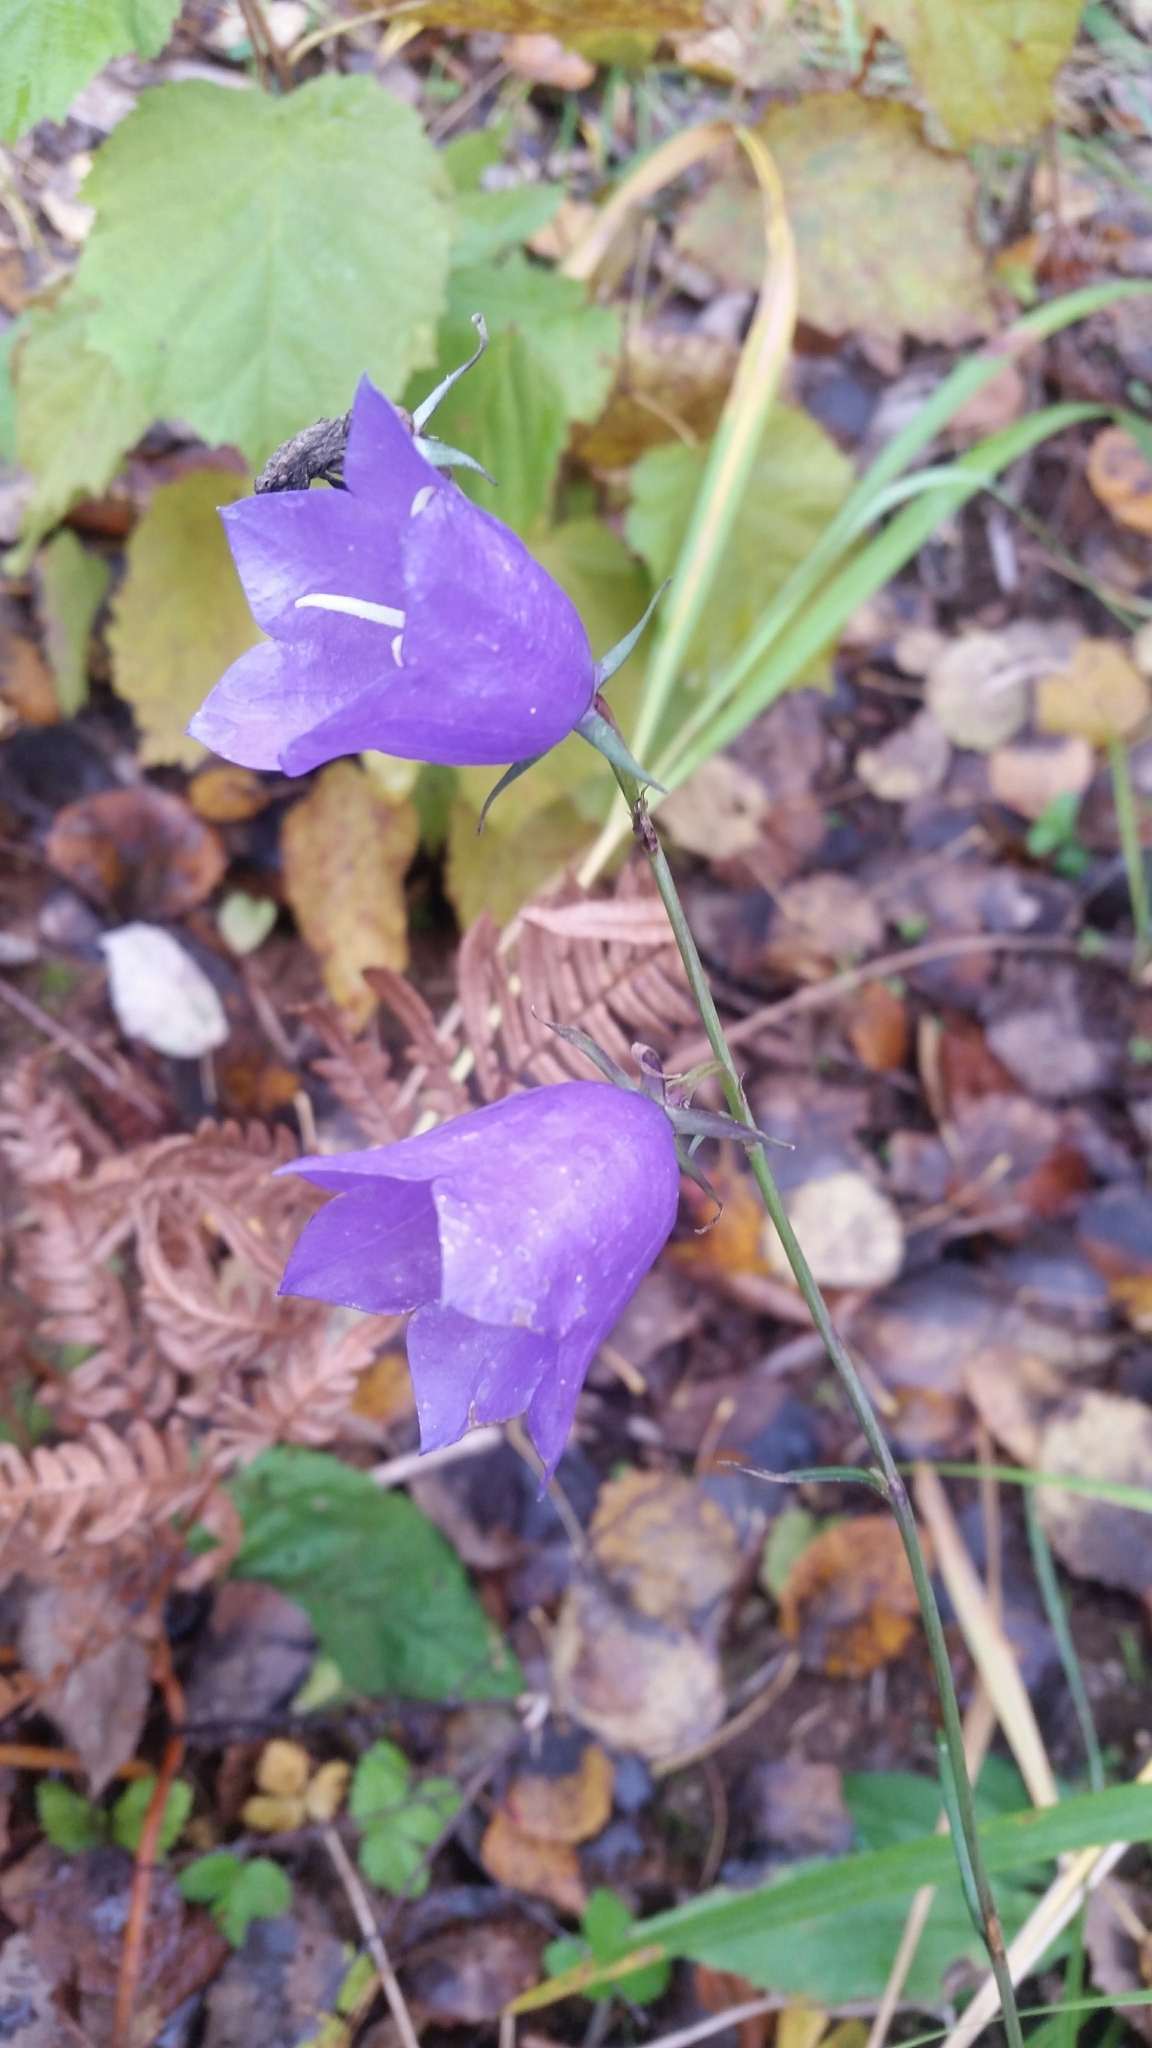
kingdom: Plantae
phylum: Tracheophyta
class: Magnoliopsida
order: Asterales
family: Campanulaceae
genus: Campanula
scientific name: Campanula persicifolia
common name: Peach-leaved bellflower
